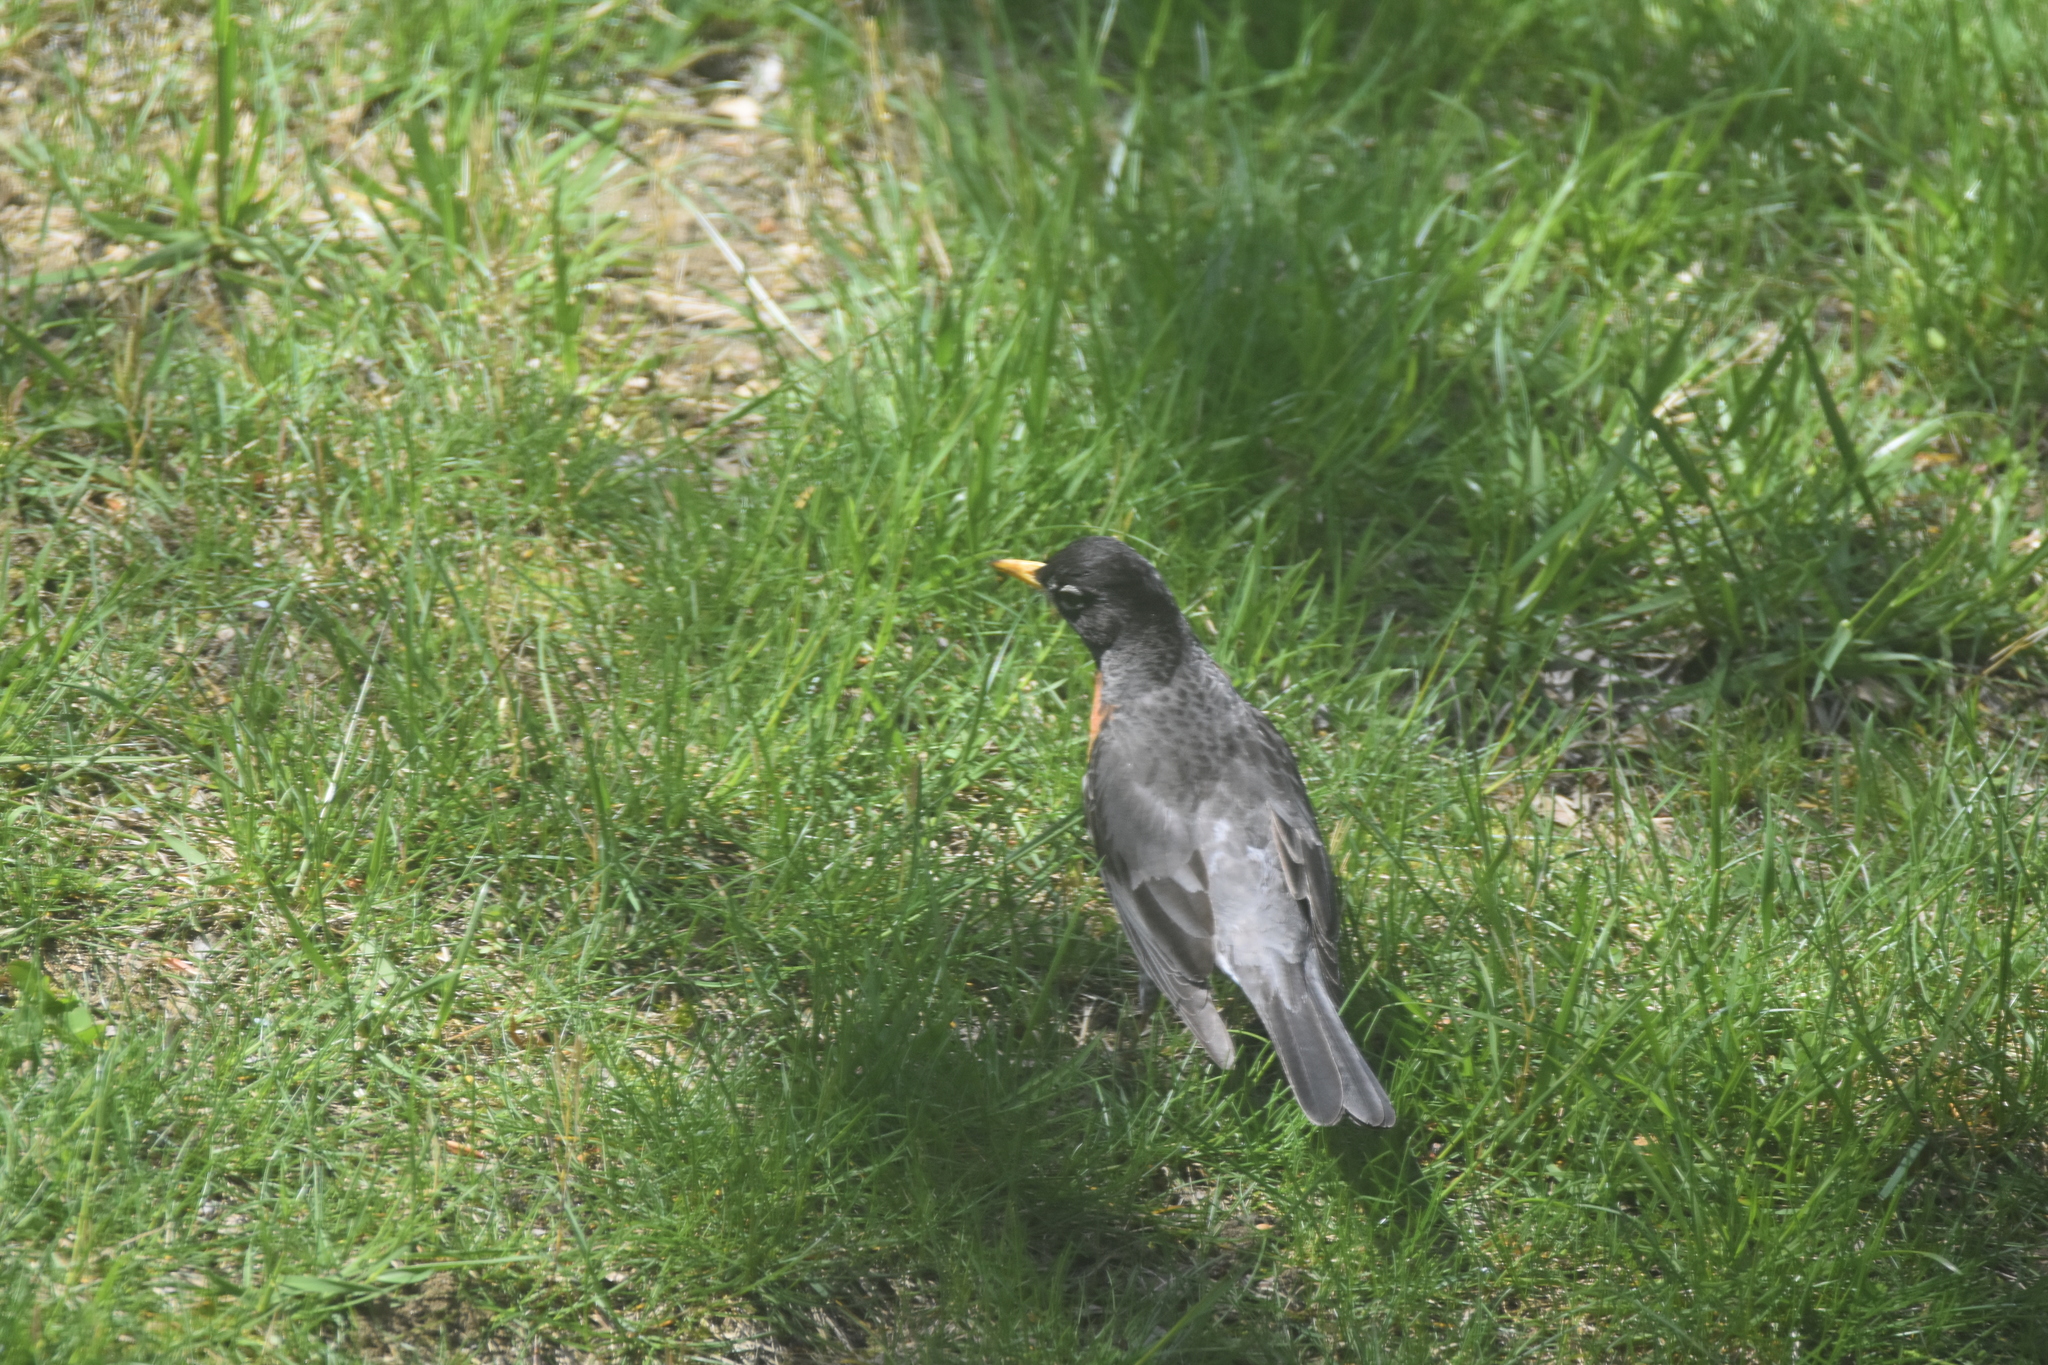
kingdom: Animalia
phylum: Chordata
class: Aves
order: Passeriformes
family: Turdidae
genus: Turdus
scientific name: Turdus migratorius
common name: American robin
